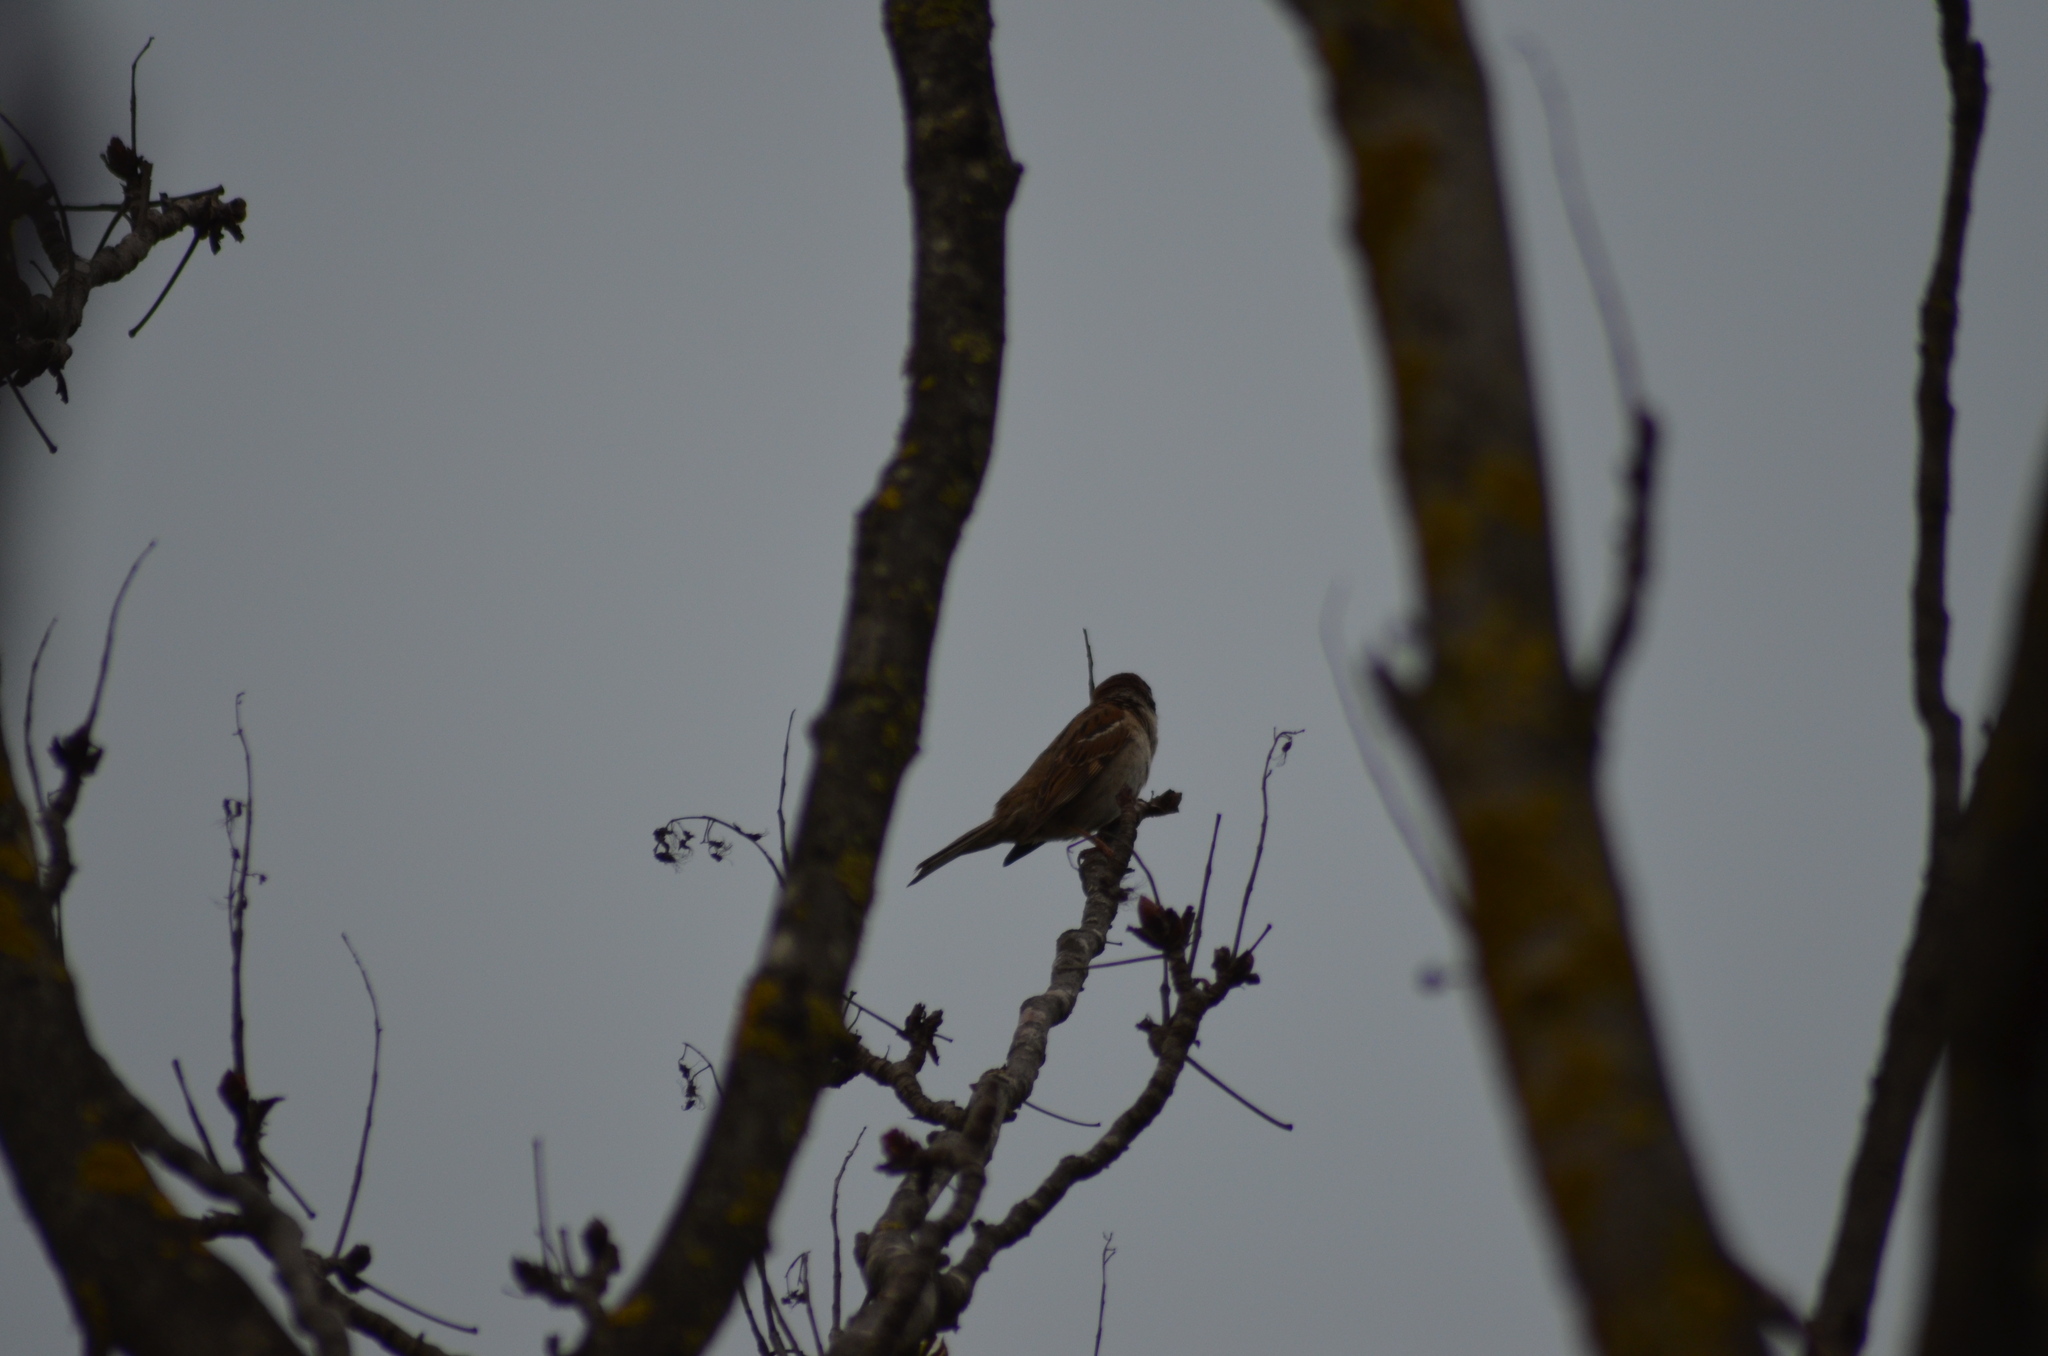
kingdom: Animalia
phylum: Chordata
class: Aves
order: Passeriformes
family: Passeridae
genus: Passer
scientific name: Passer montanus
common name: Eurasian tree sparrow
